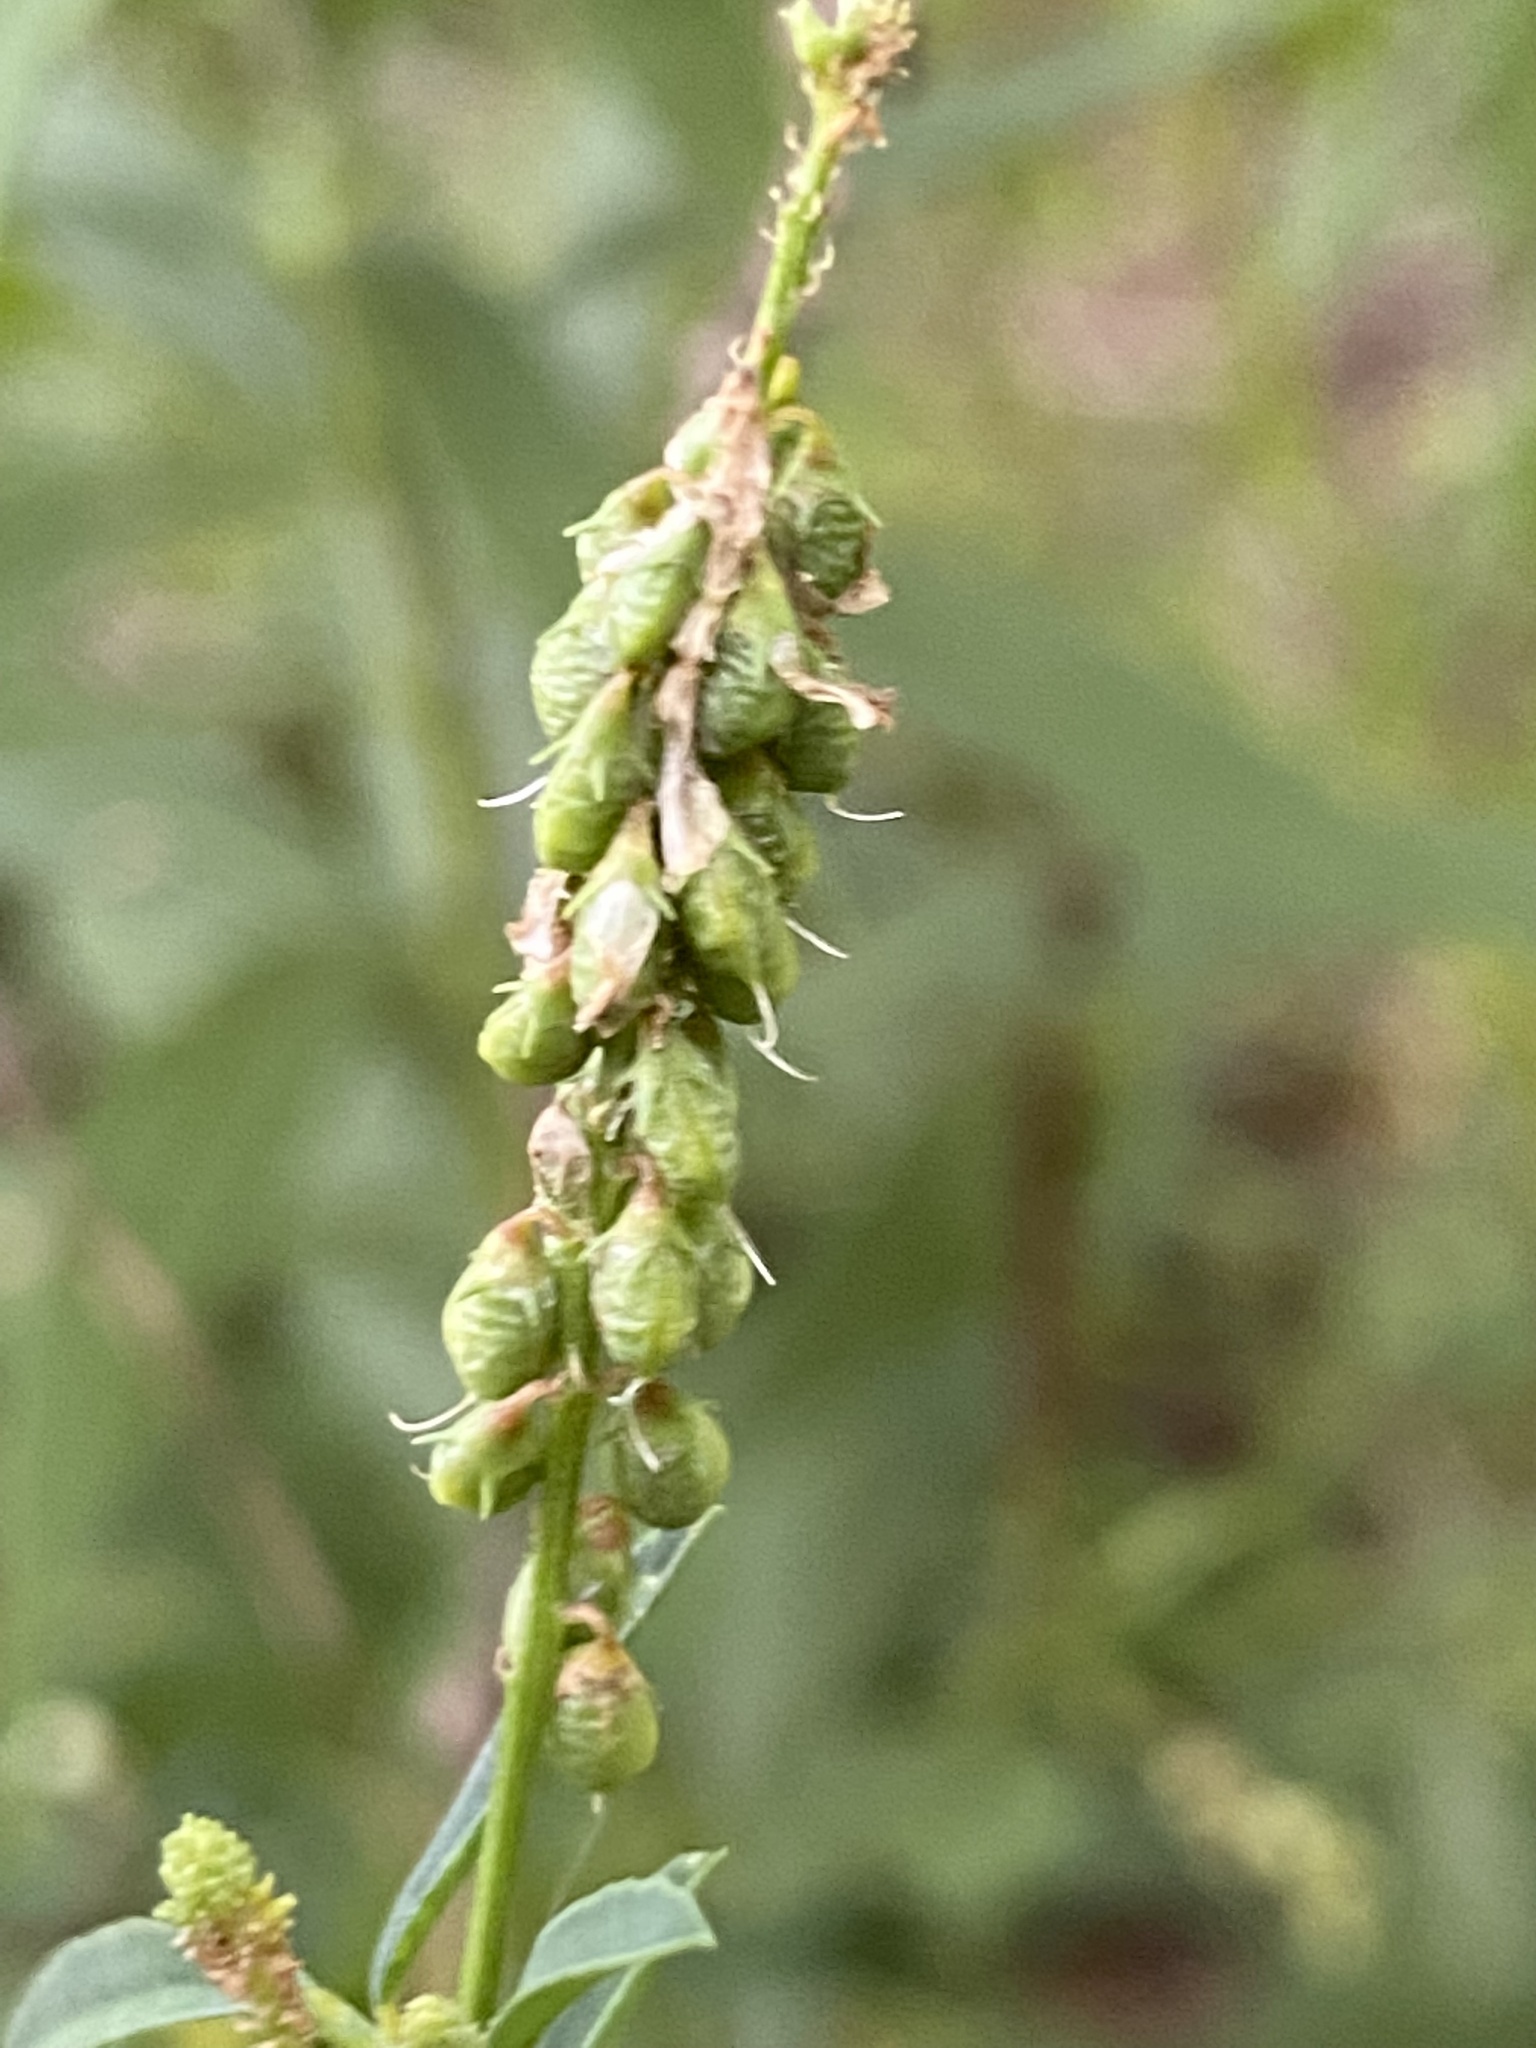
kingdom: Plantae
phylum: Tracheophyta
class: Magnoliopsida
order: Fabales
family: Fabaceae
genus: Melilotus
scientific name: Melilotus albus
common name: White melilot
